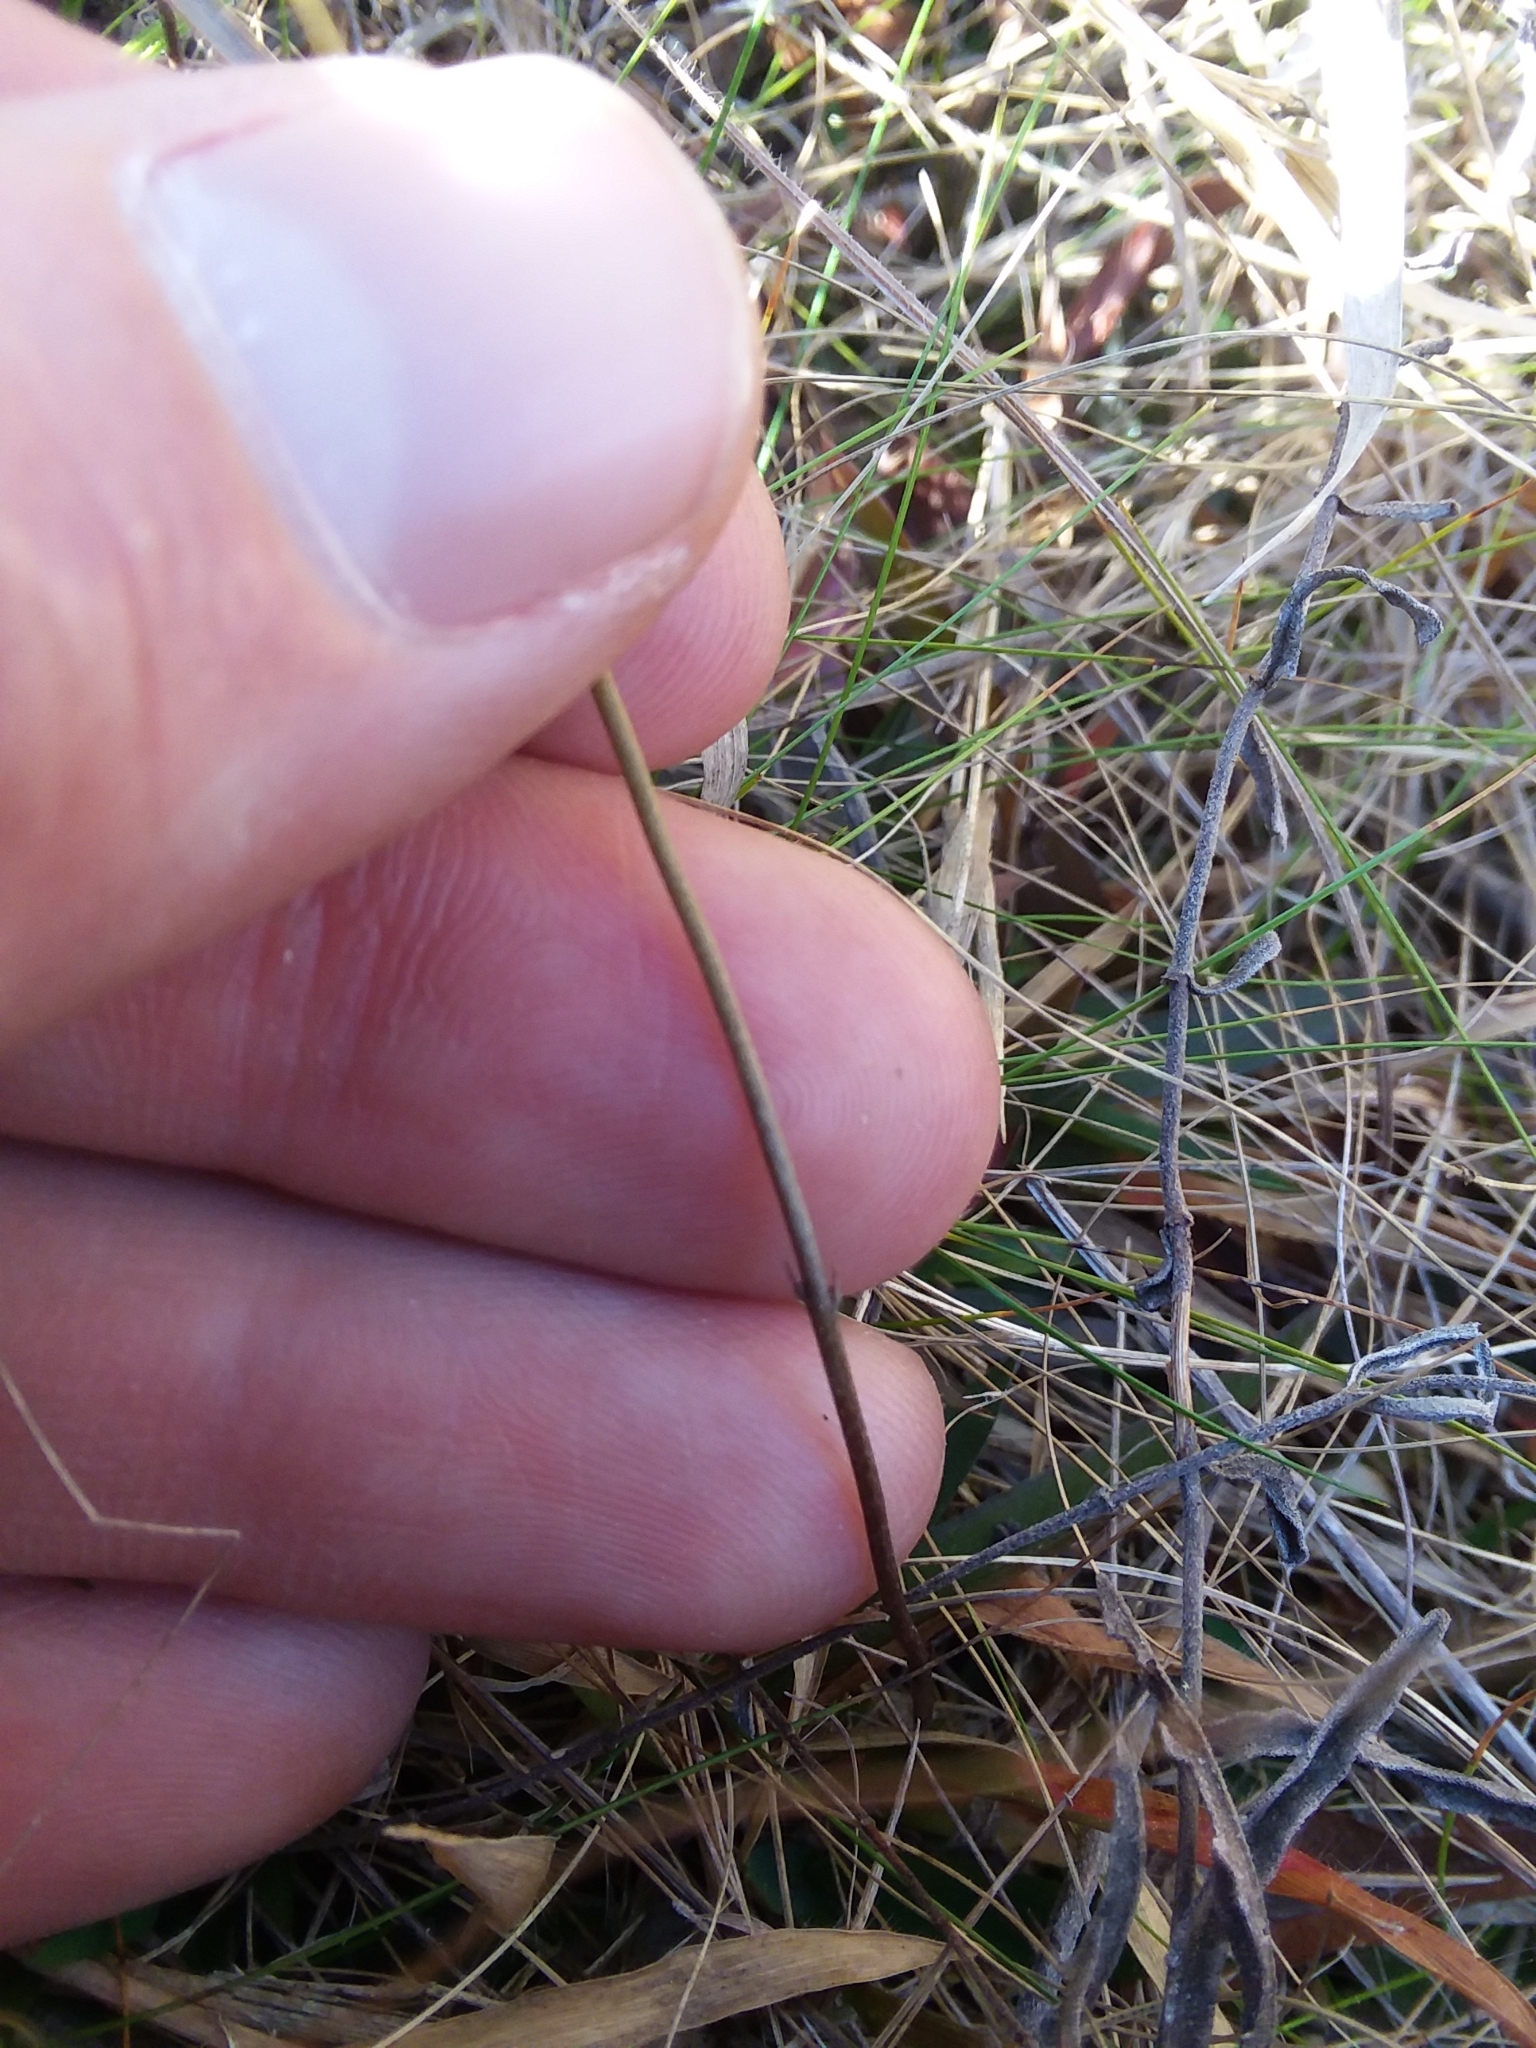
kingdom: Plantae
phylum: Tracheophyta
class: Magnoliopsida
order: Gentianales
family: Gentianaceae
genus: Bartonia
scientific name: Bartonia verna
